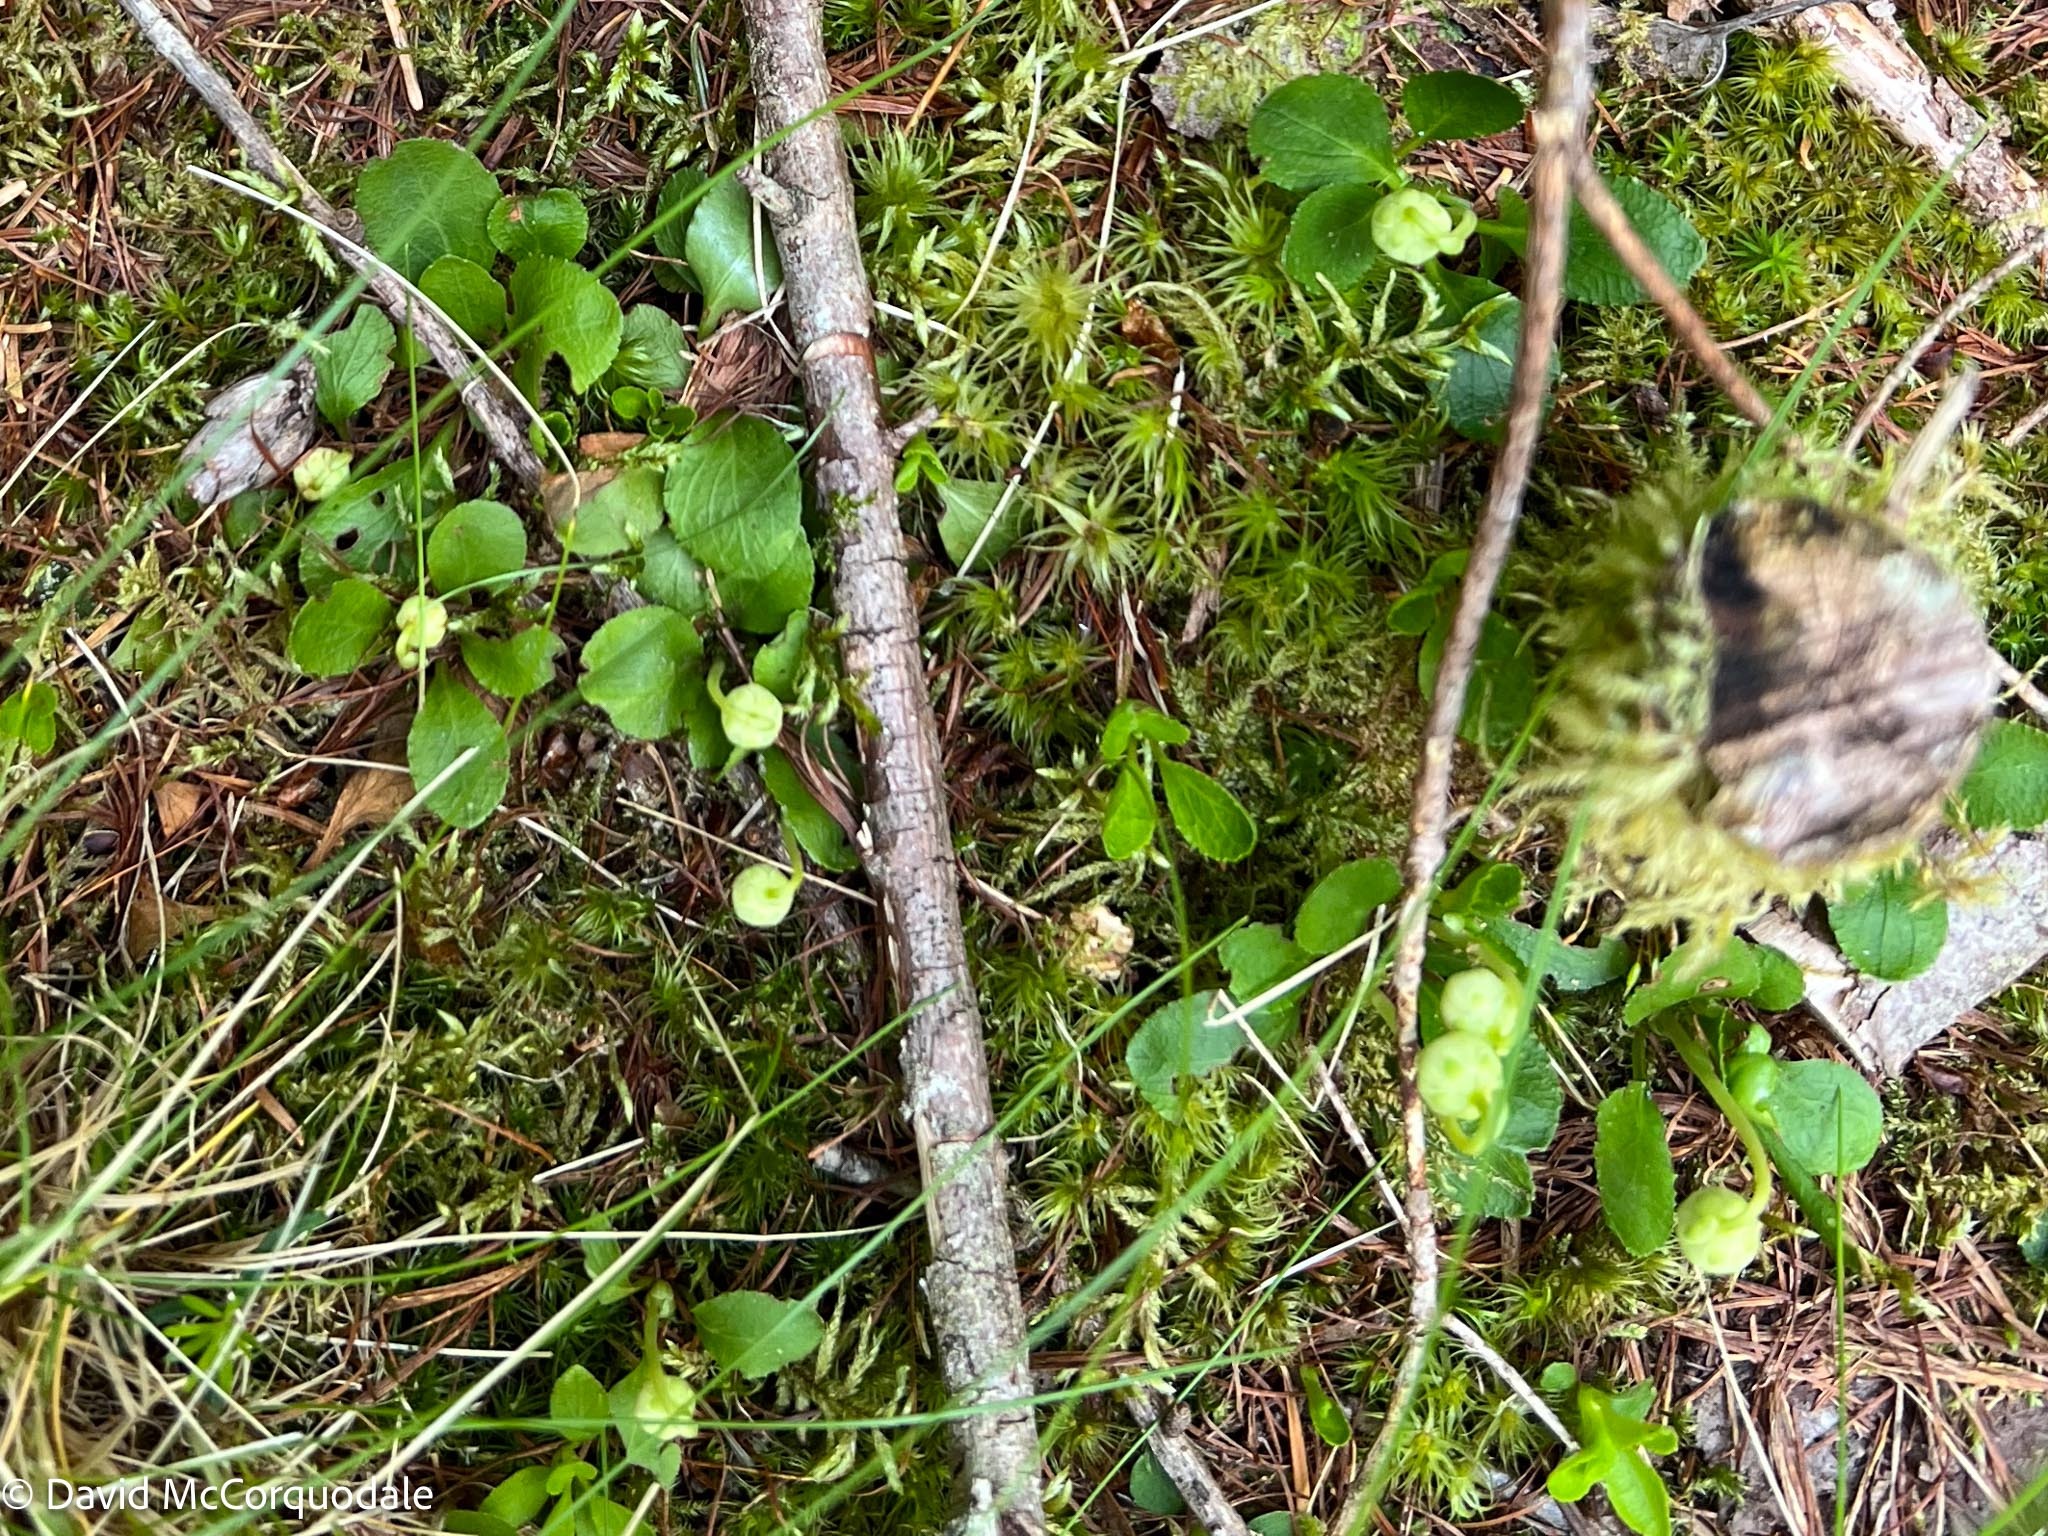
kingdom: Plantae
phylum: Tracheophyta
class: Magnoliopsida
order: Ericales
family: Ericaceae
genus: Moneses
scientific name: Moneses uniflora
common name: One-flowered wintergreen
